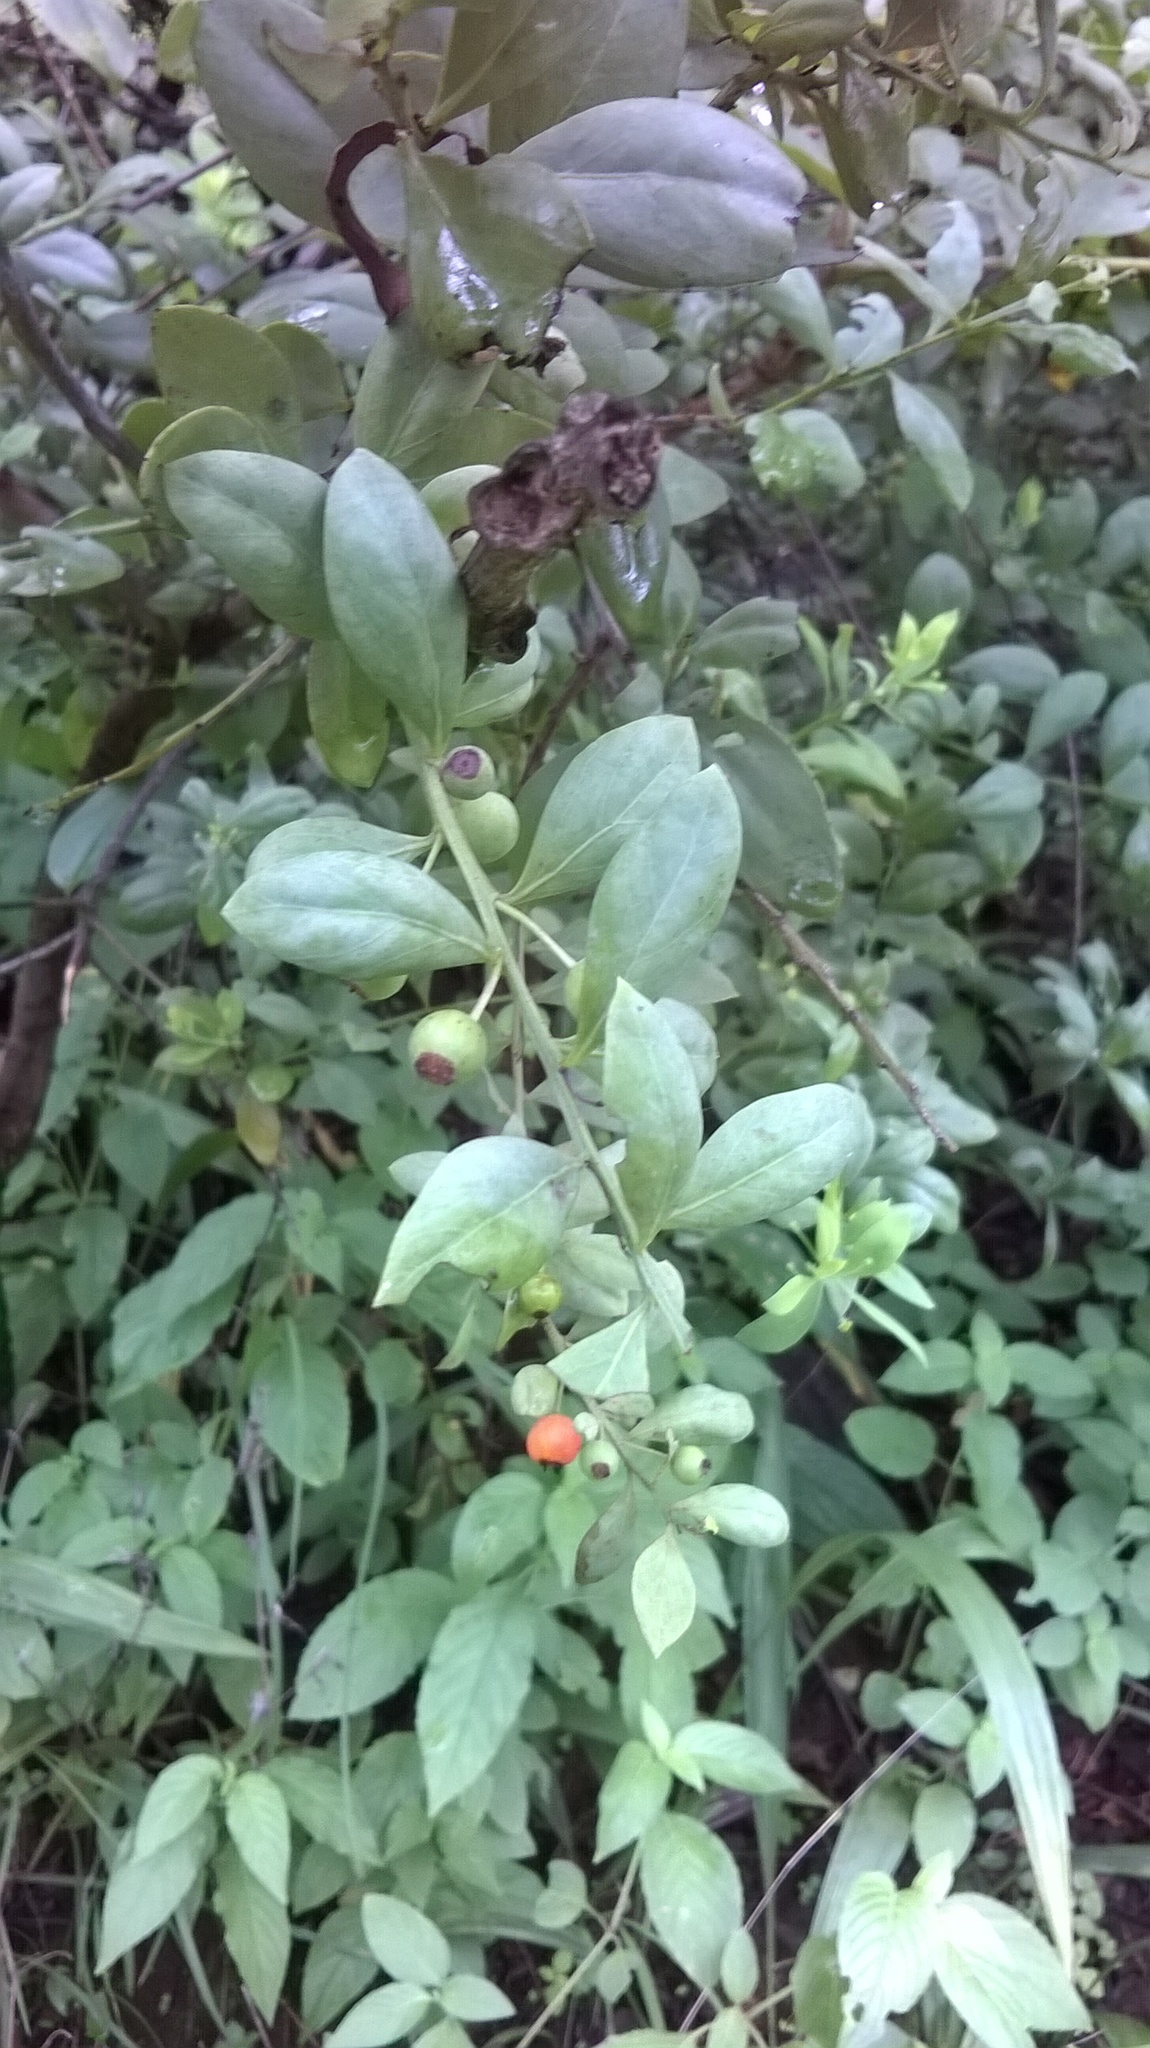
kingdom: Plantae
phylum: Tracheophyta
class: Magnoliopsida
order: Santalales
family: Santalaceae
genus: Osyris
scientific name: Osyris lanceolata
